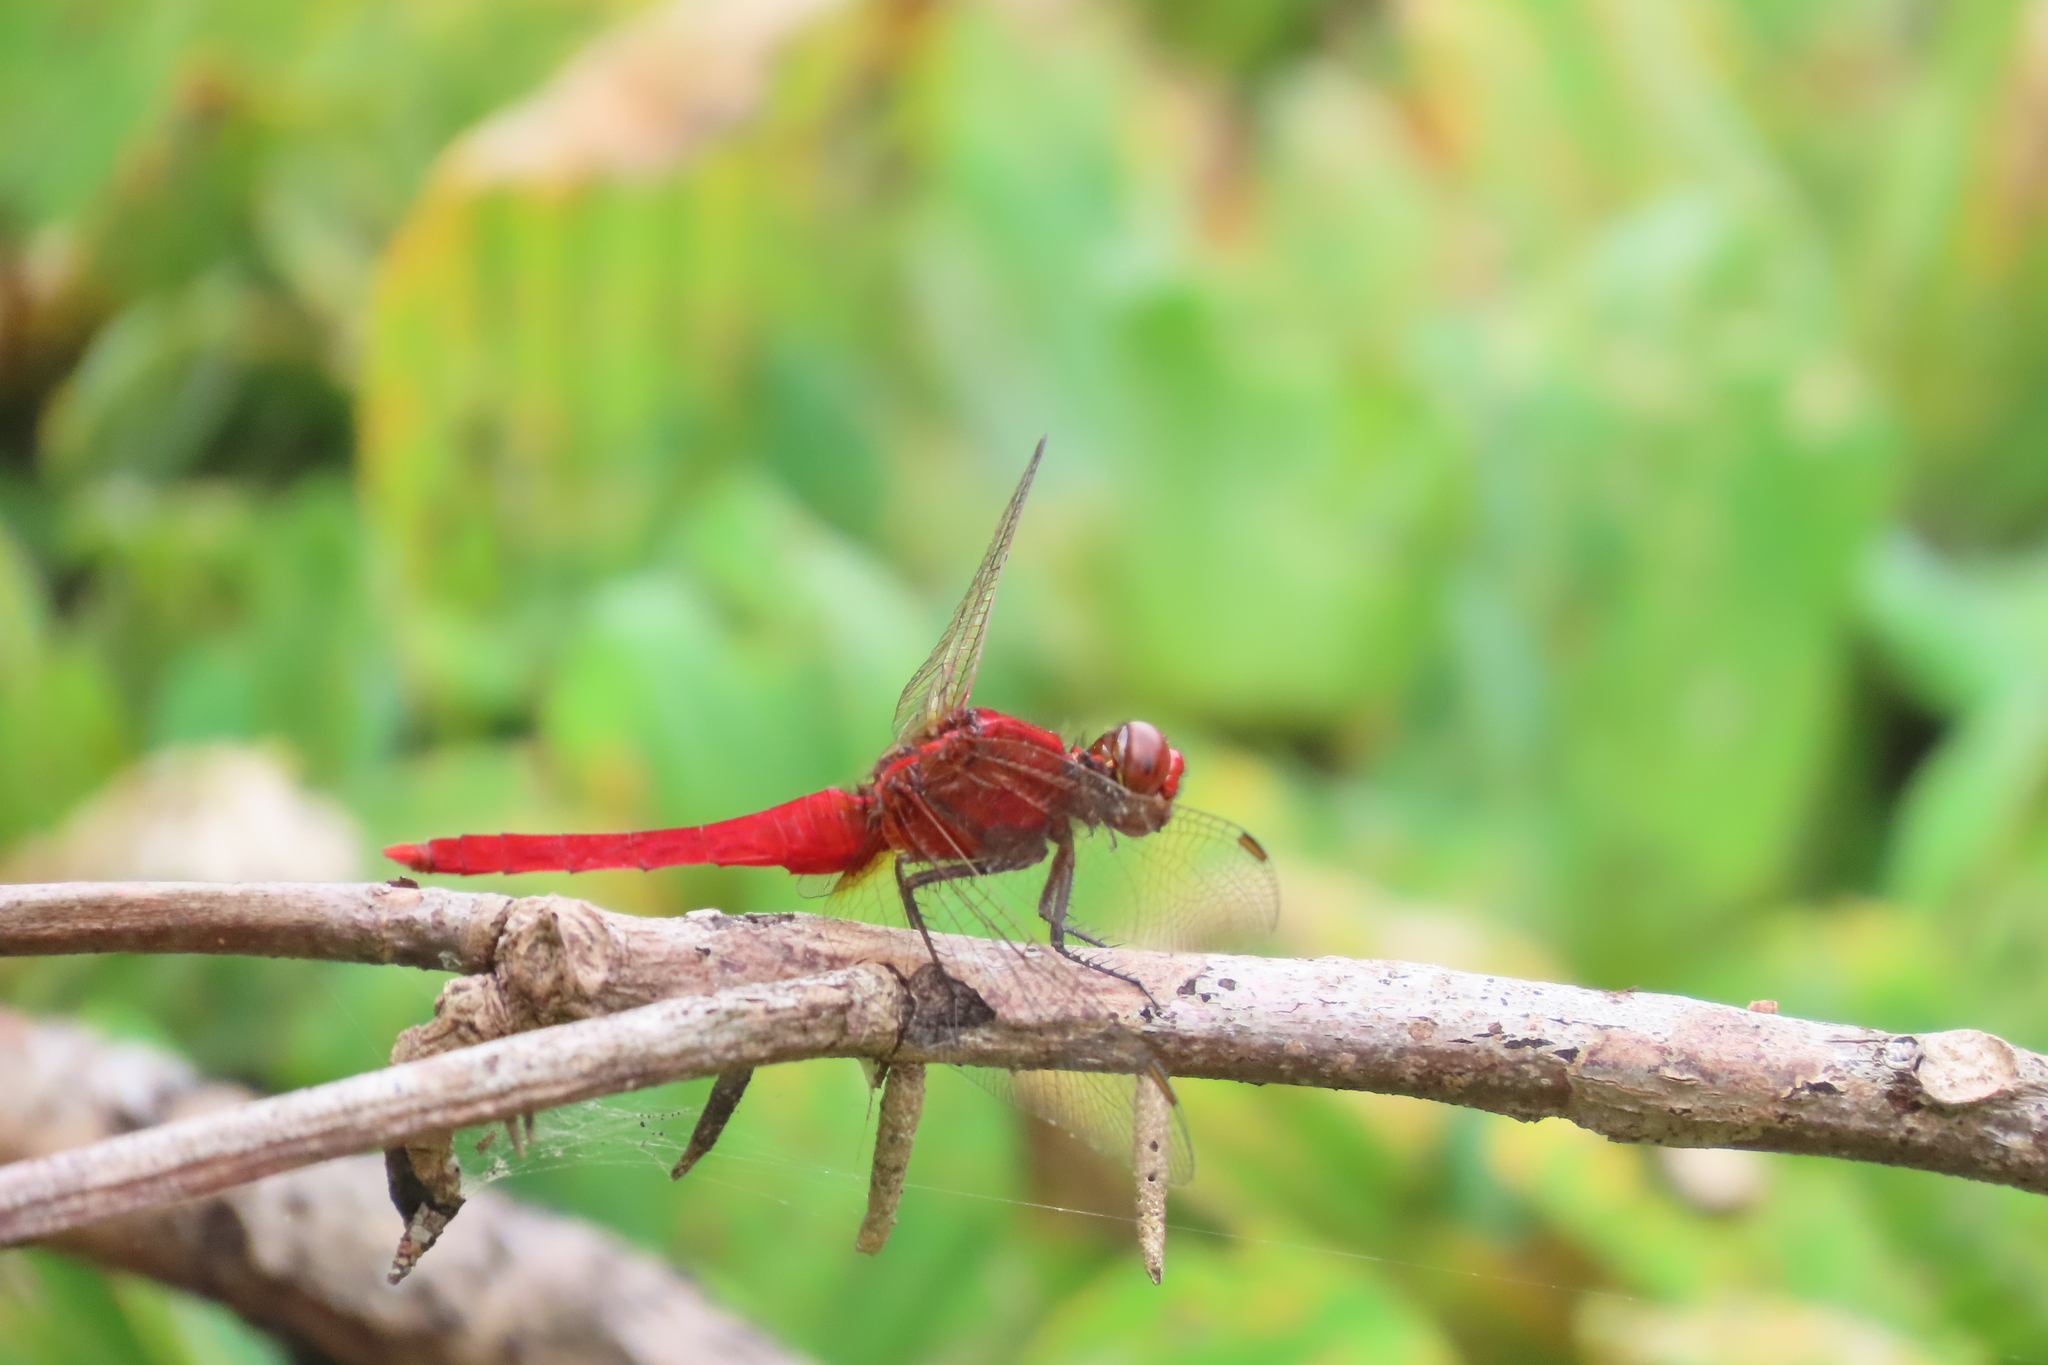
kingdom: Animalia
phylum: Arthropoda
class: Insecta
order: Odonata
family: Libellulidae
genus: Rhodothemis
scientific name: Rhodothemis rufa
